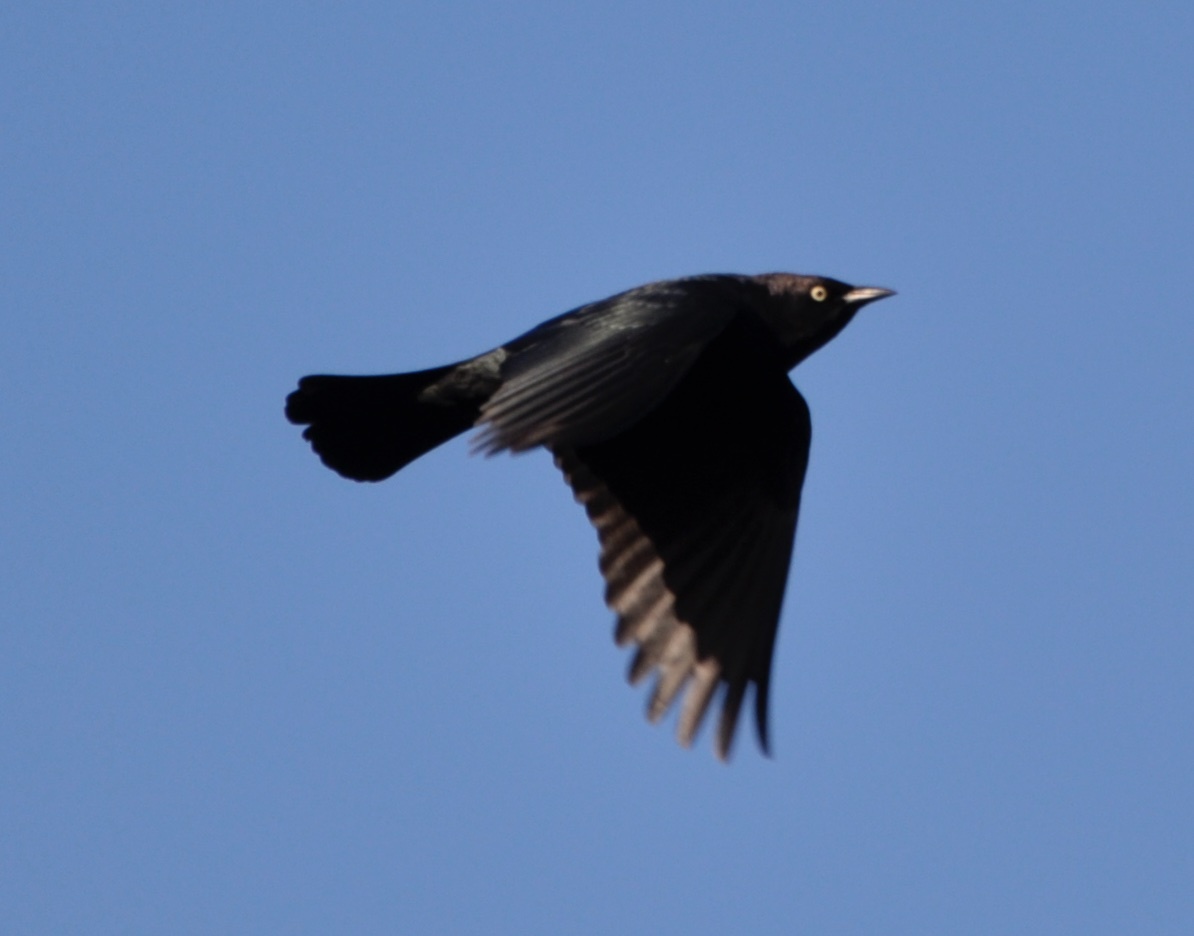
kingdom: Animalia
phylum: Chordata
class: Aves
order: Passeriformes
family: Icteridae
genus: Euphagus
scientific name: Euphagus cyanocephalus
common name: Brewer's blackbird
